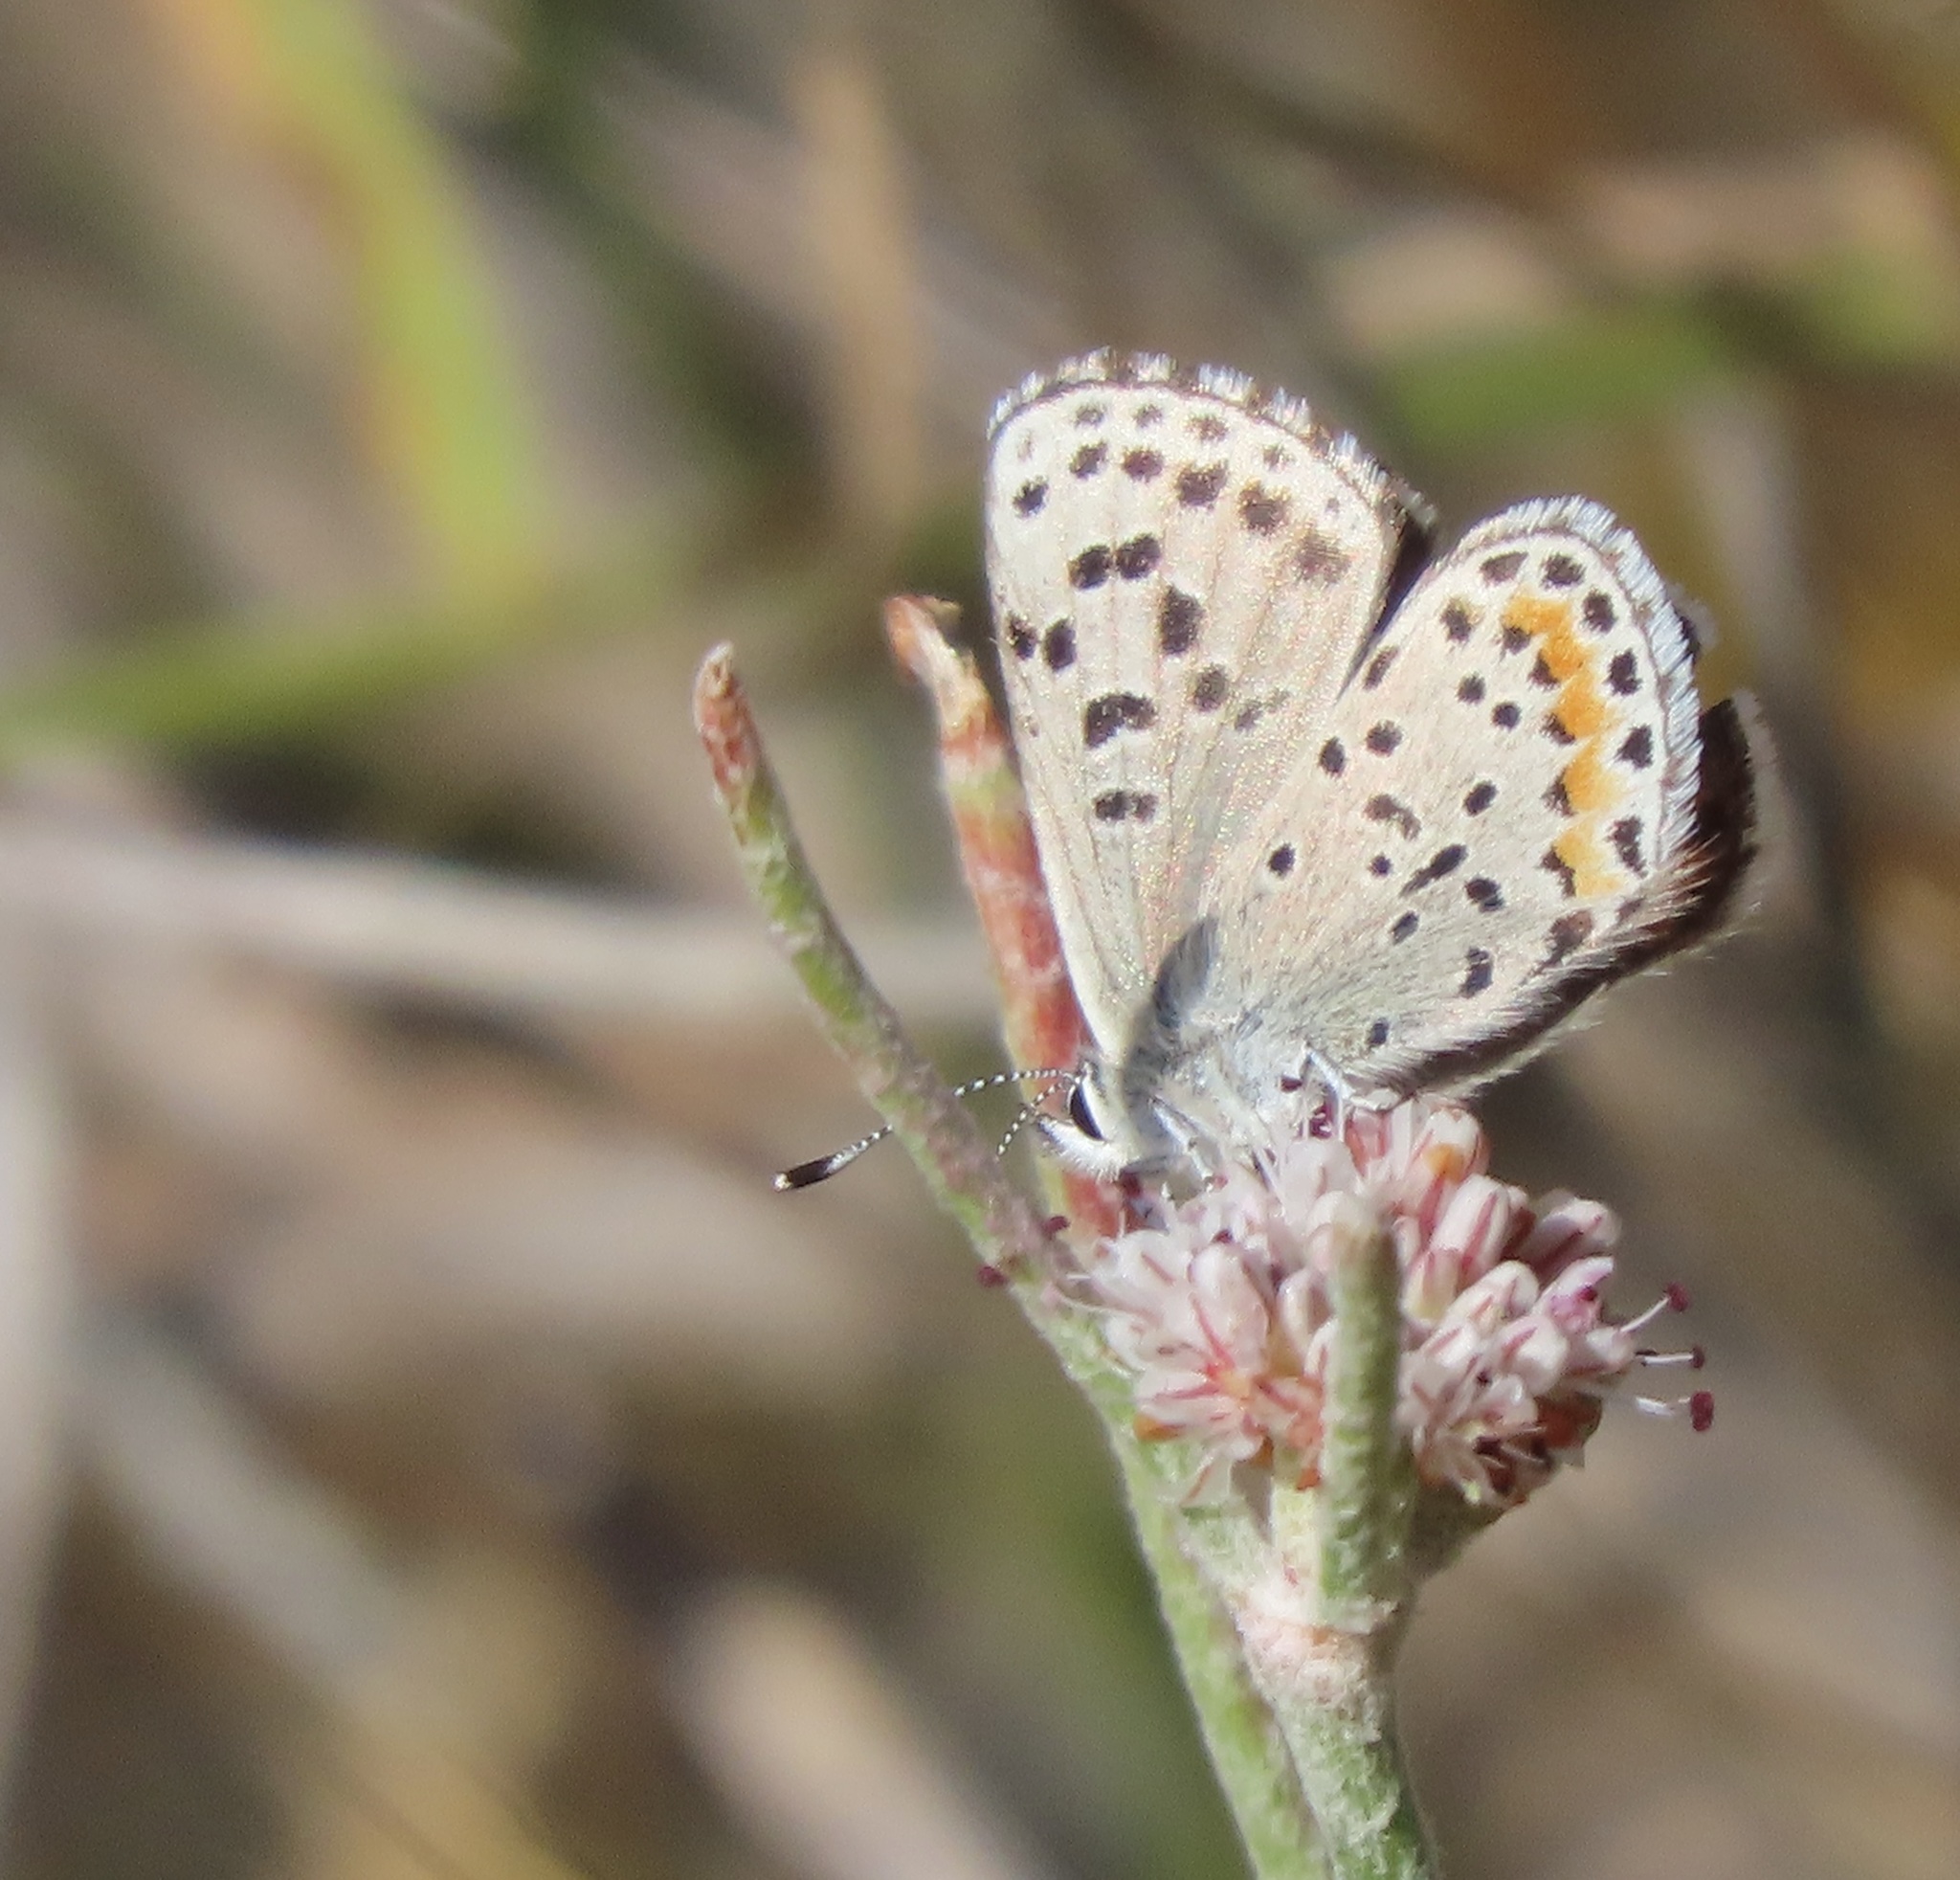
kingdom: Animalia
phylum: Arthropoda
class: Insecta
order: Lepidoptera
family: Lycaenidae
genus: Euphilotes
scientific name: Euphilotes enoptes
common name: Dotted blue
